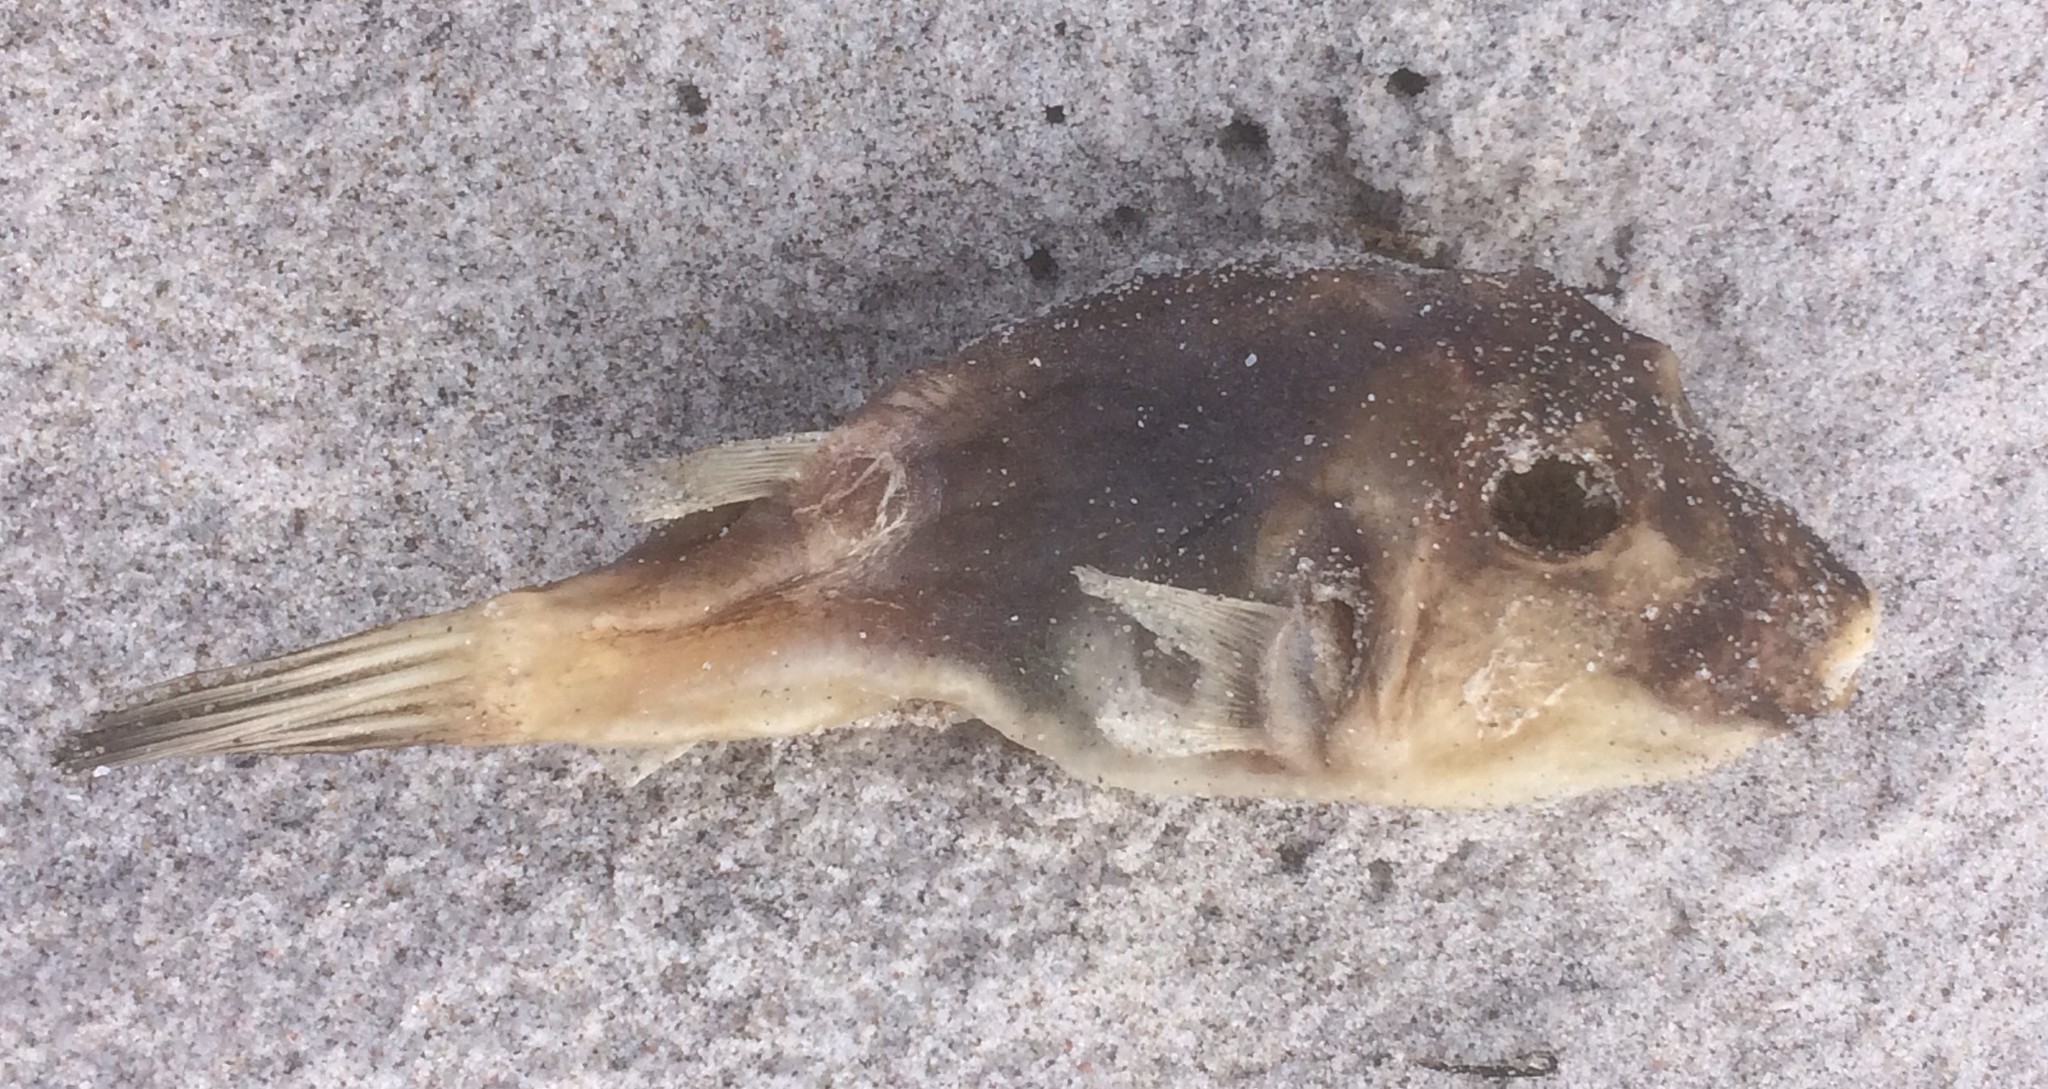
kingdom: Animalia
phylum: Chordata
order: Tetraodontiformes
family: Tetraodontidae
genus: Omegophora
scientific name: Omegophora armilla
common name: Ringed pufferfish
